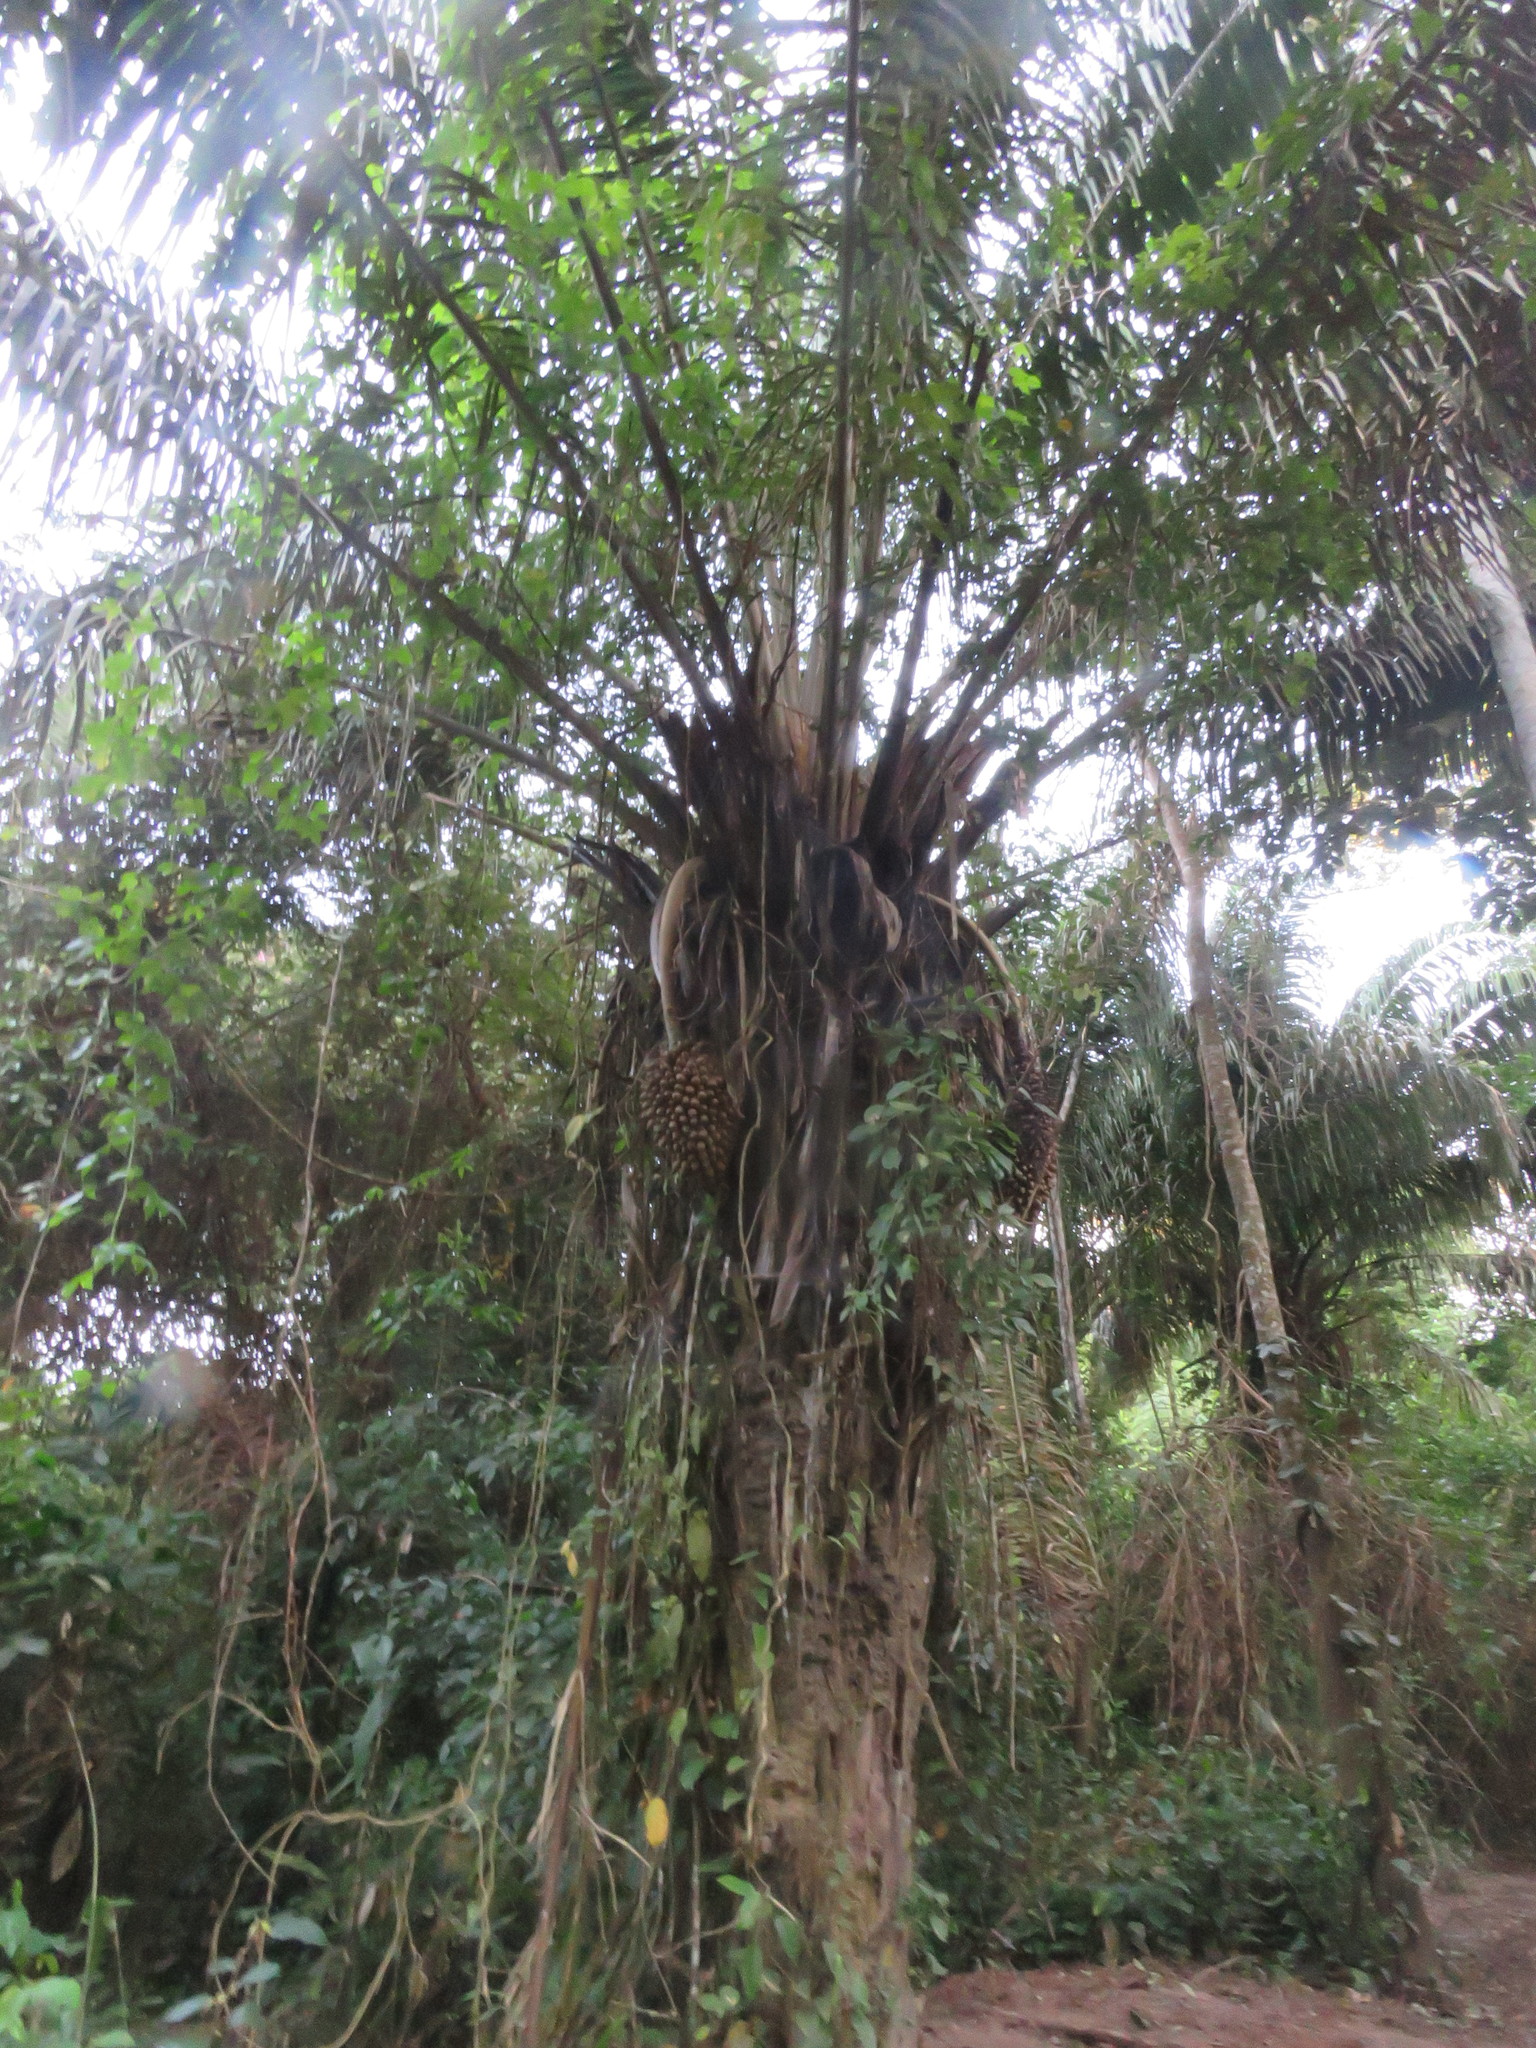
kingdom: Plantae
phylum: Tracheophyta
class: Liliopsida
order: Arecales
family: Arecaceae
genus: Attalea
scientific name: Attalea phalerata
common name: Urucuri palm
